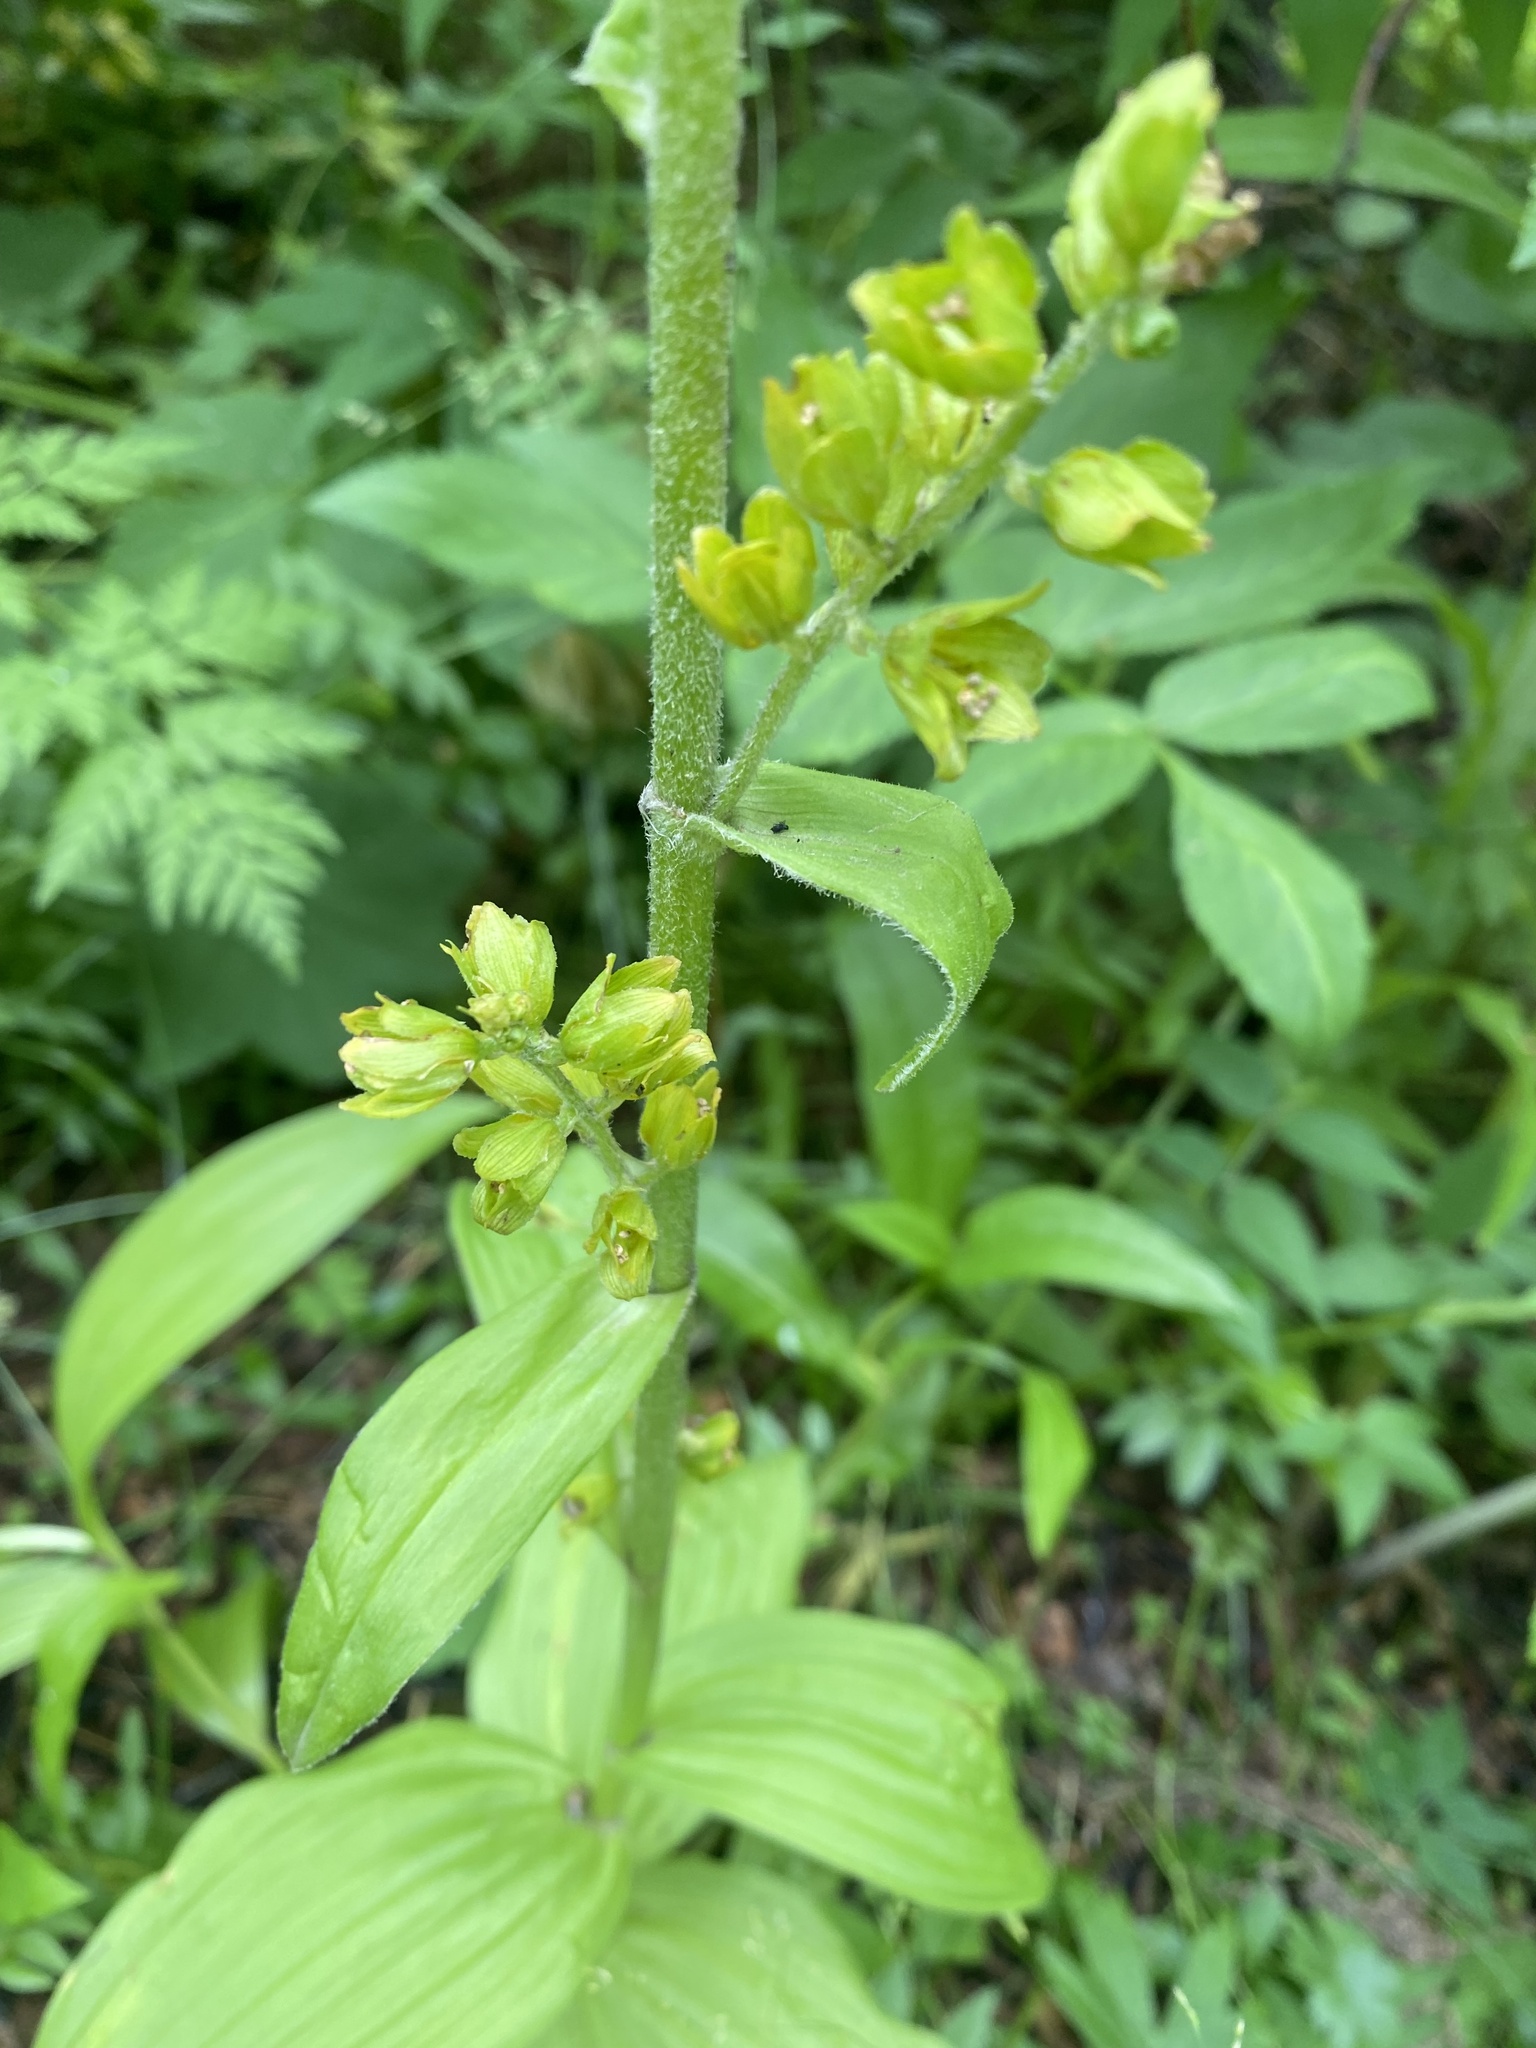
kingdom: Plantae
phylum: Tracheophyta
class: Liliopsida
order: Liliales
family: Melanthiaceae
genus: Veratrum
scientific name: Veratrum lobelianum
